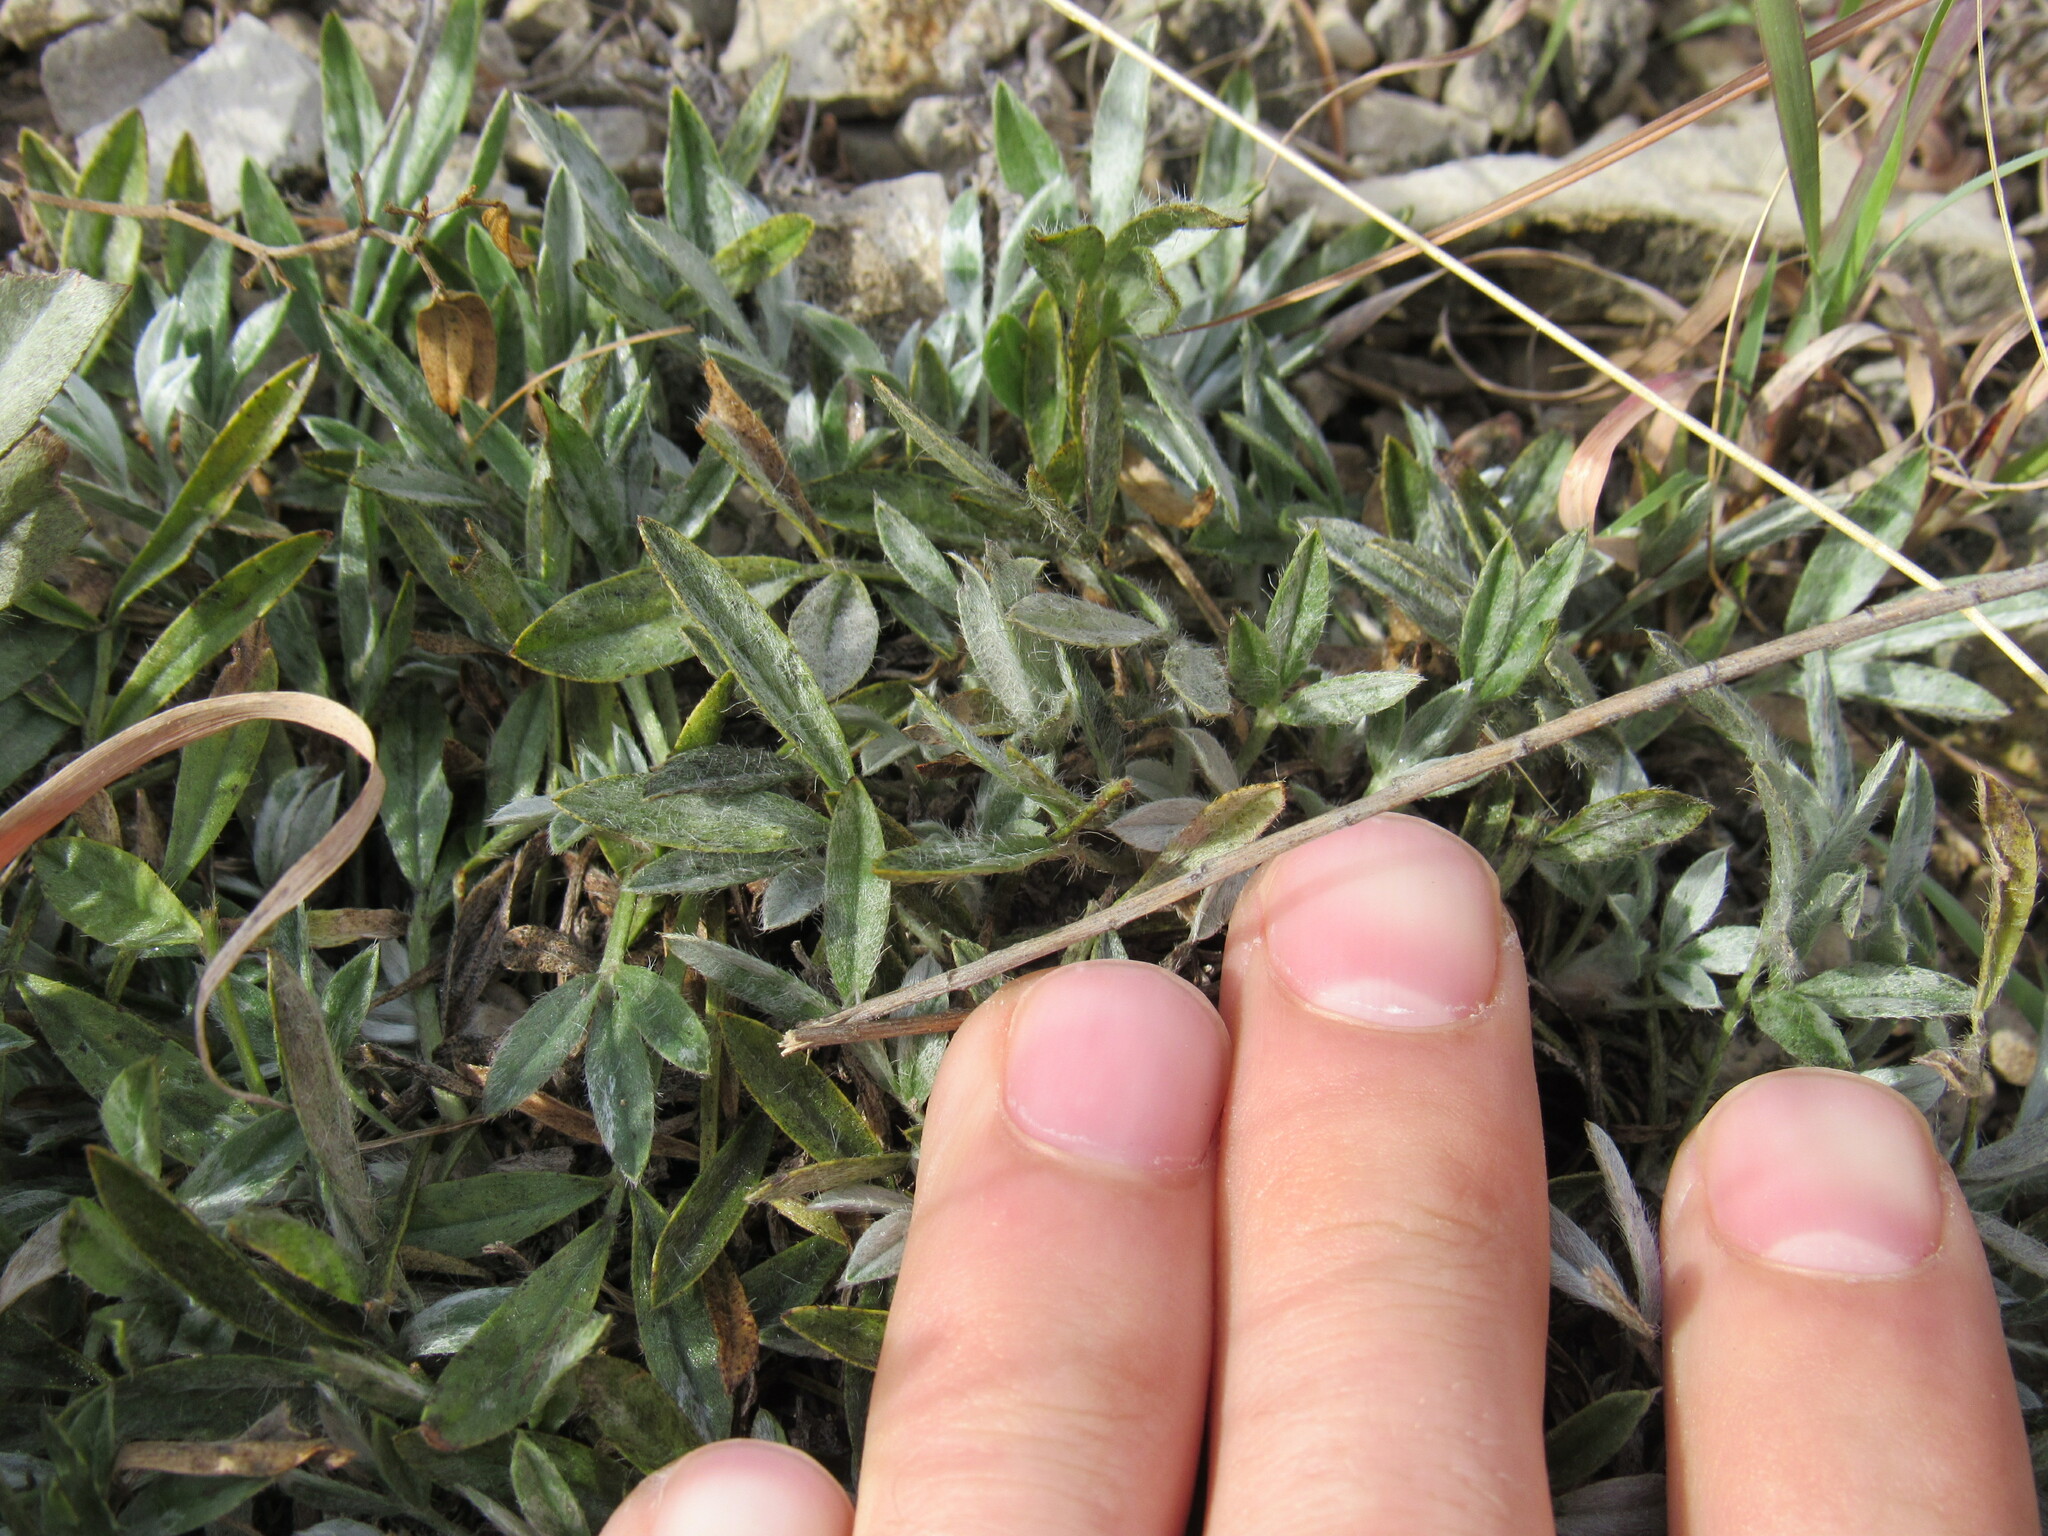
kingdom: Plantae
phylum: Tracheophyta
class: Magnoliopsida
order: Fabales
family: Fabaceae
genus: Astragalus
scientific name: Astragalus tridactylicus
